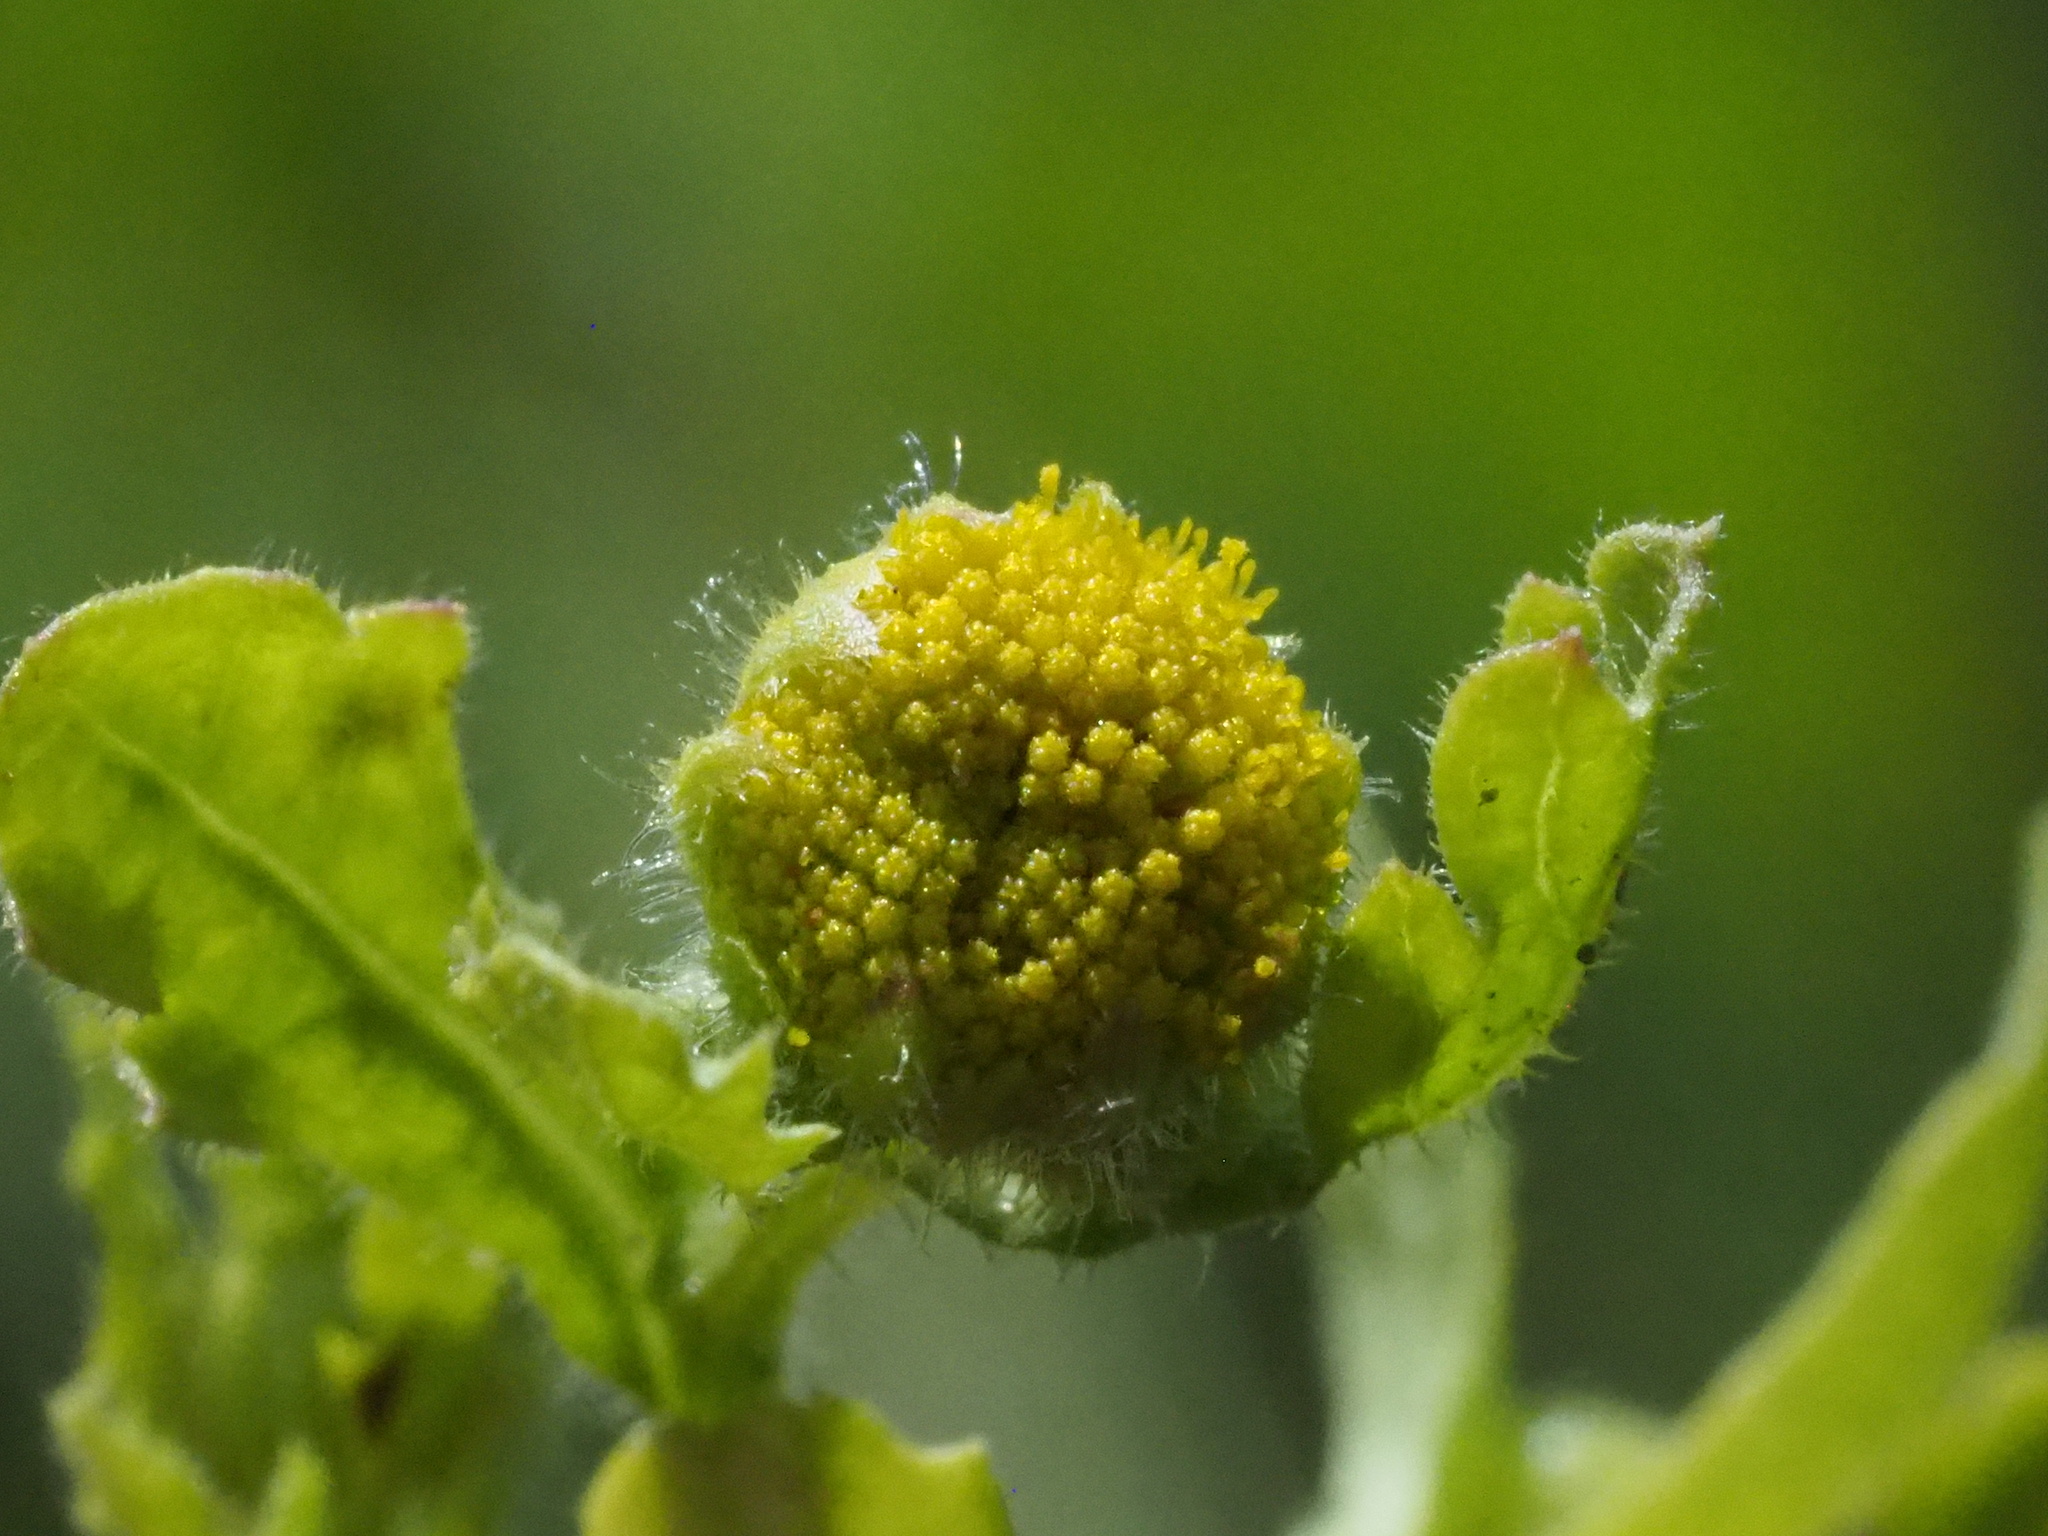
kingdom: Plantae
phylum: Tracheophyta
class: Magnoliopsida
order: Asterales
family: Asteraceae
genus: Grangea
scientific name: Grangea maderaspatana
